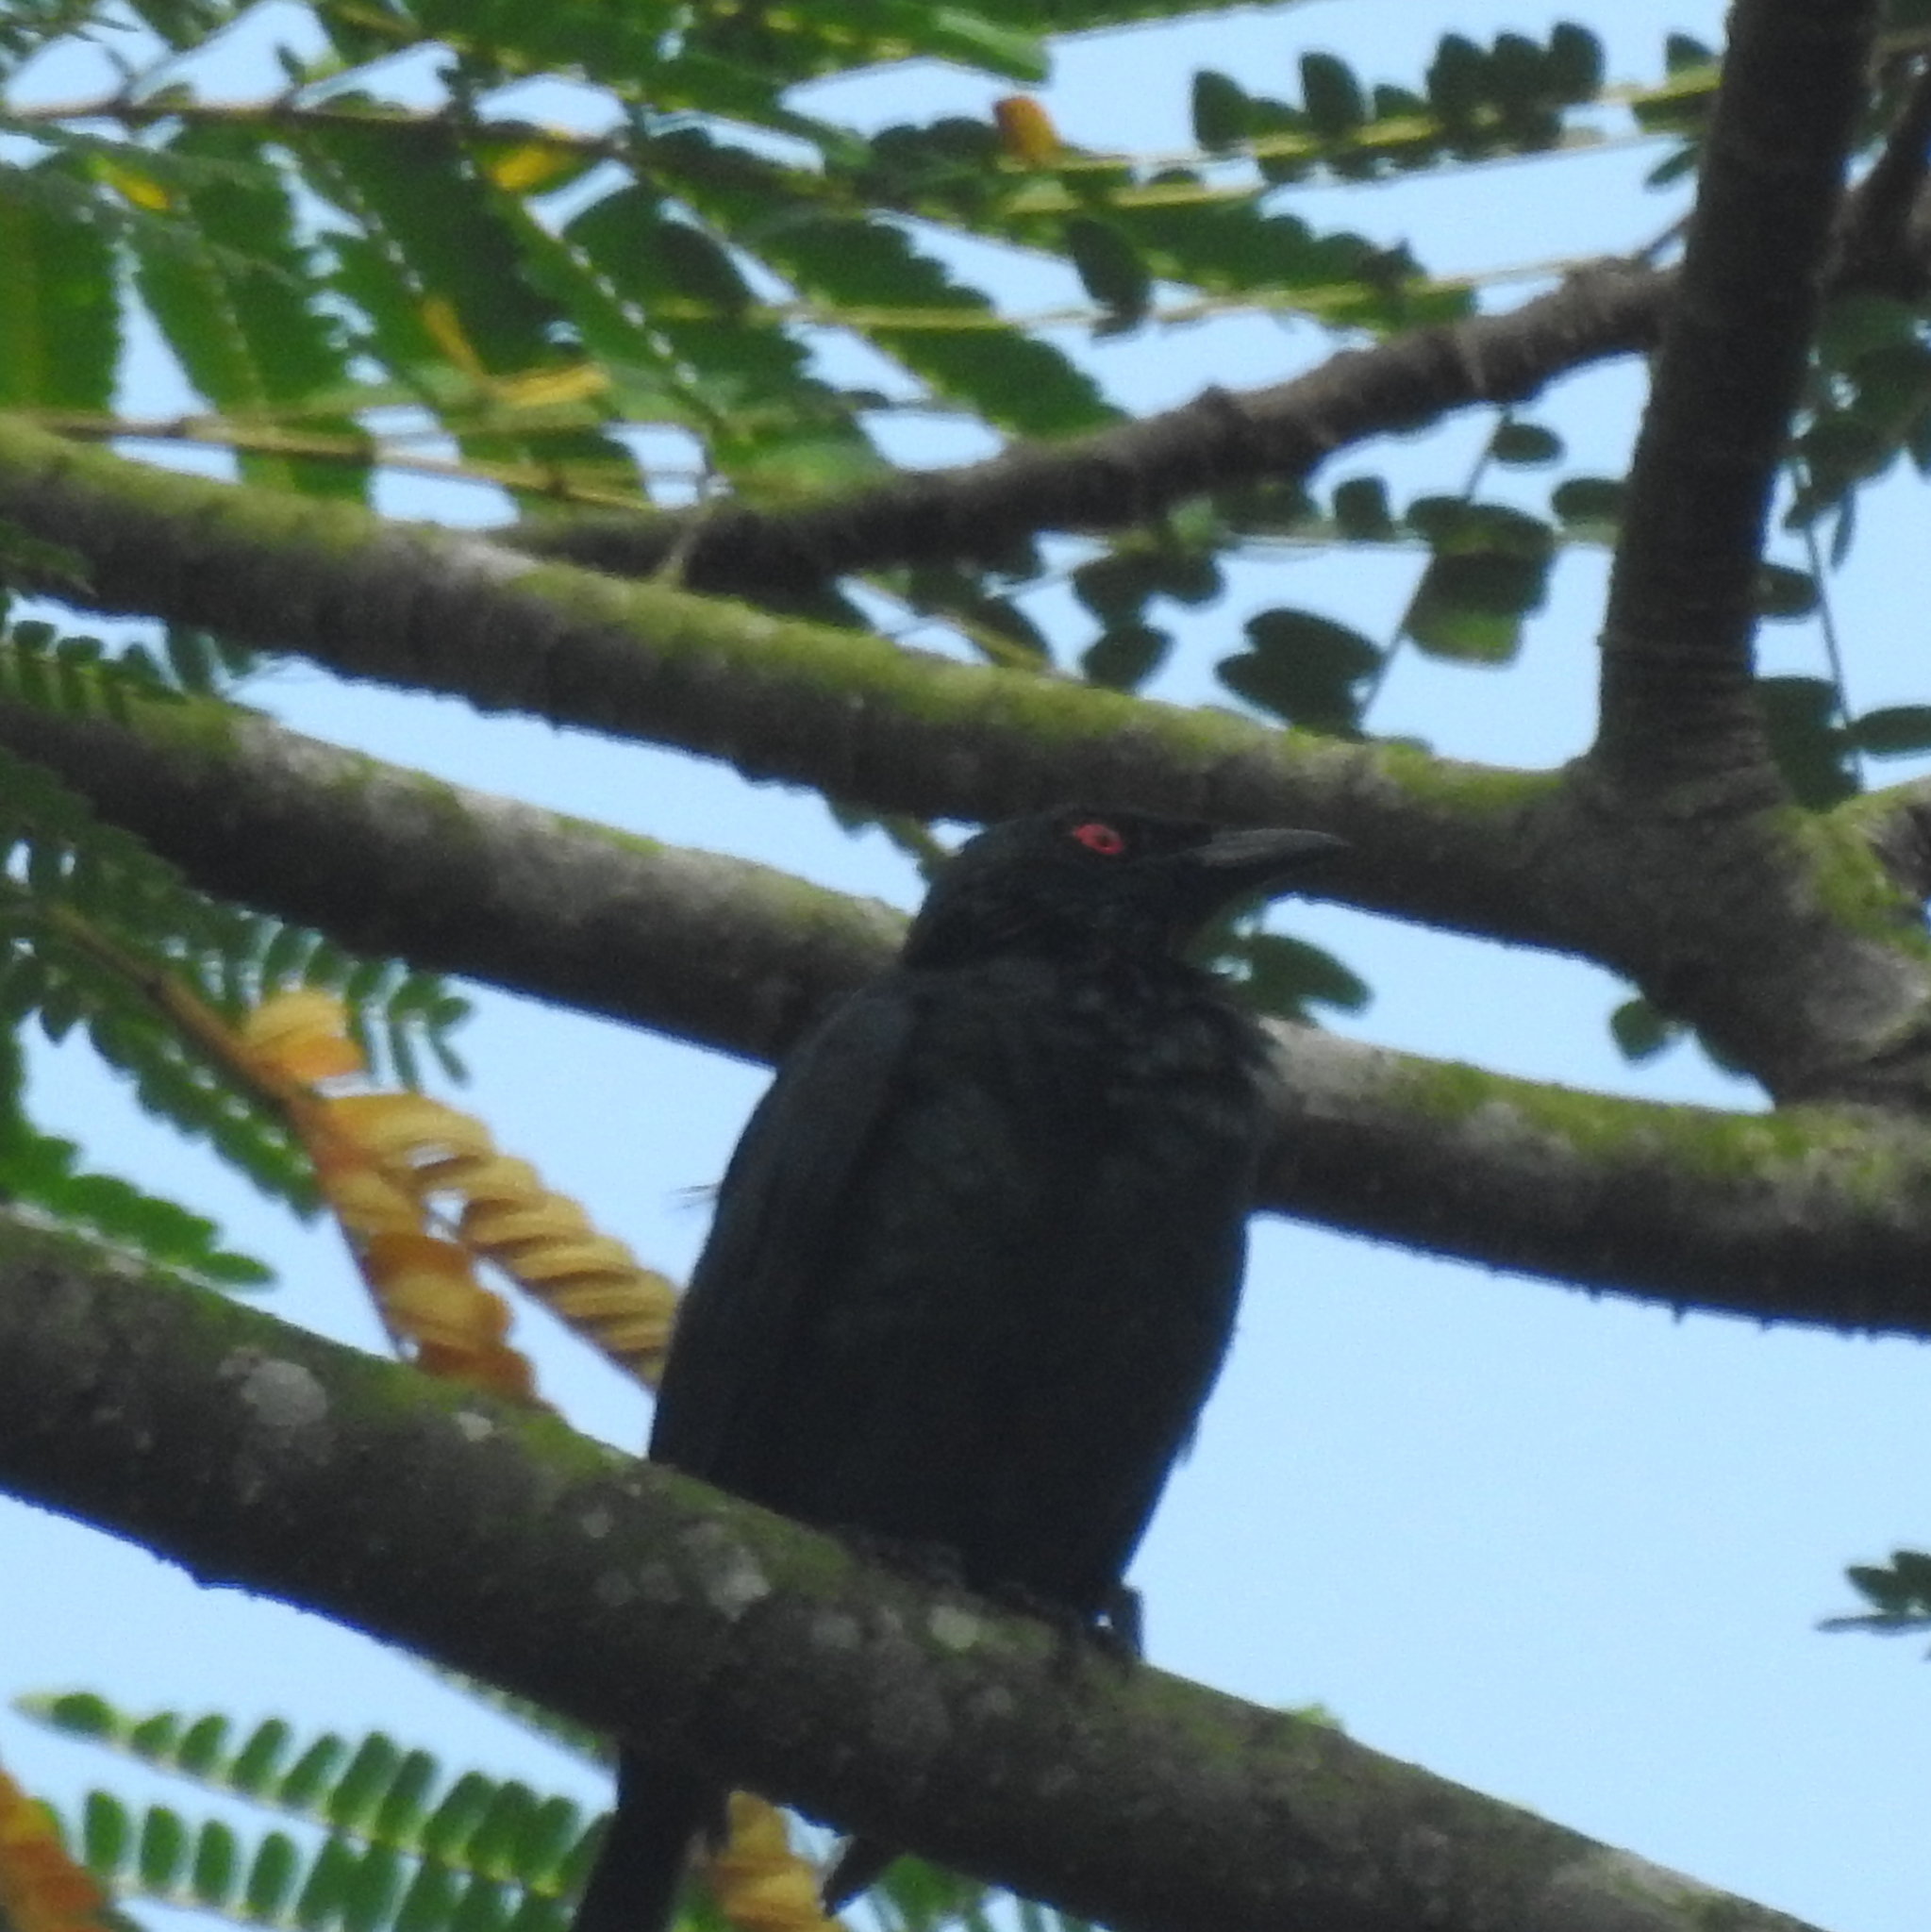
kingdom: Animalia
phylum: Chordata
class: Aves
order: Passeriformes
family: Sturnidae
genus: Aplonis
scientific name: Aplonis panayensis
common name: Asian glossy starling
